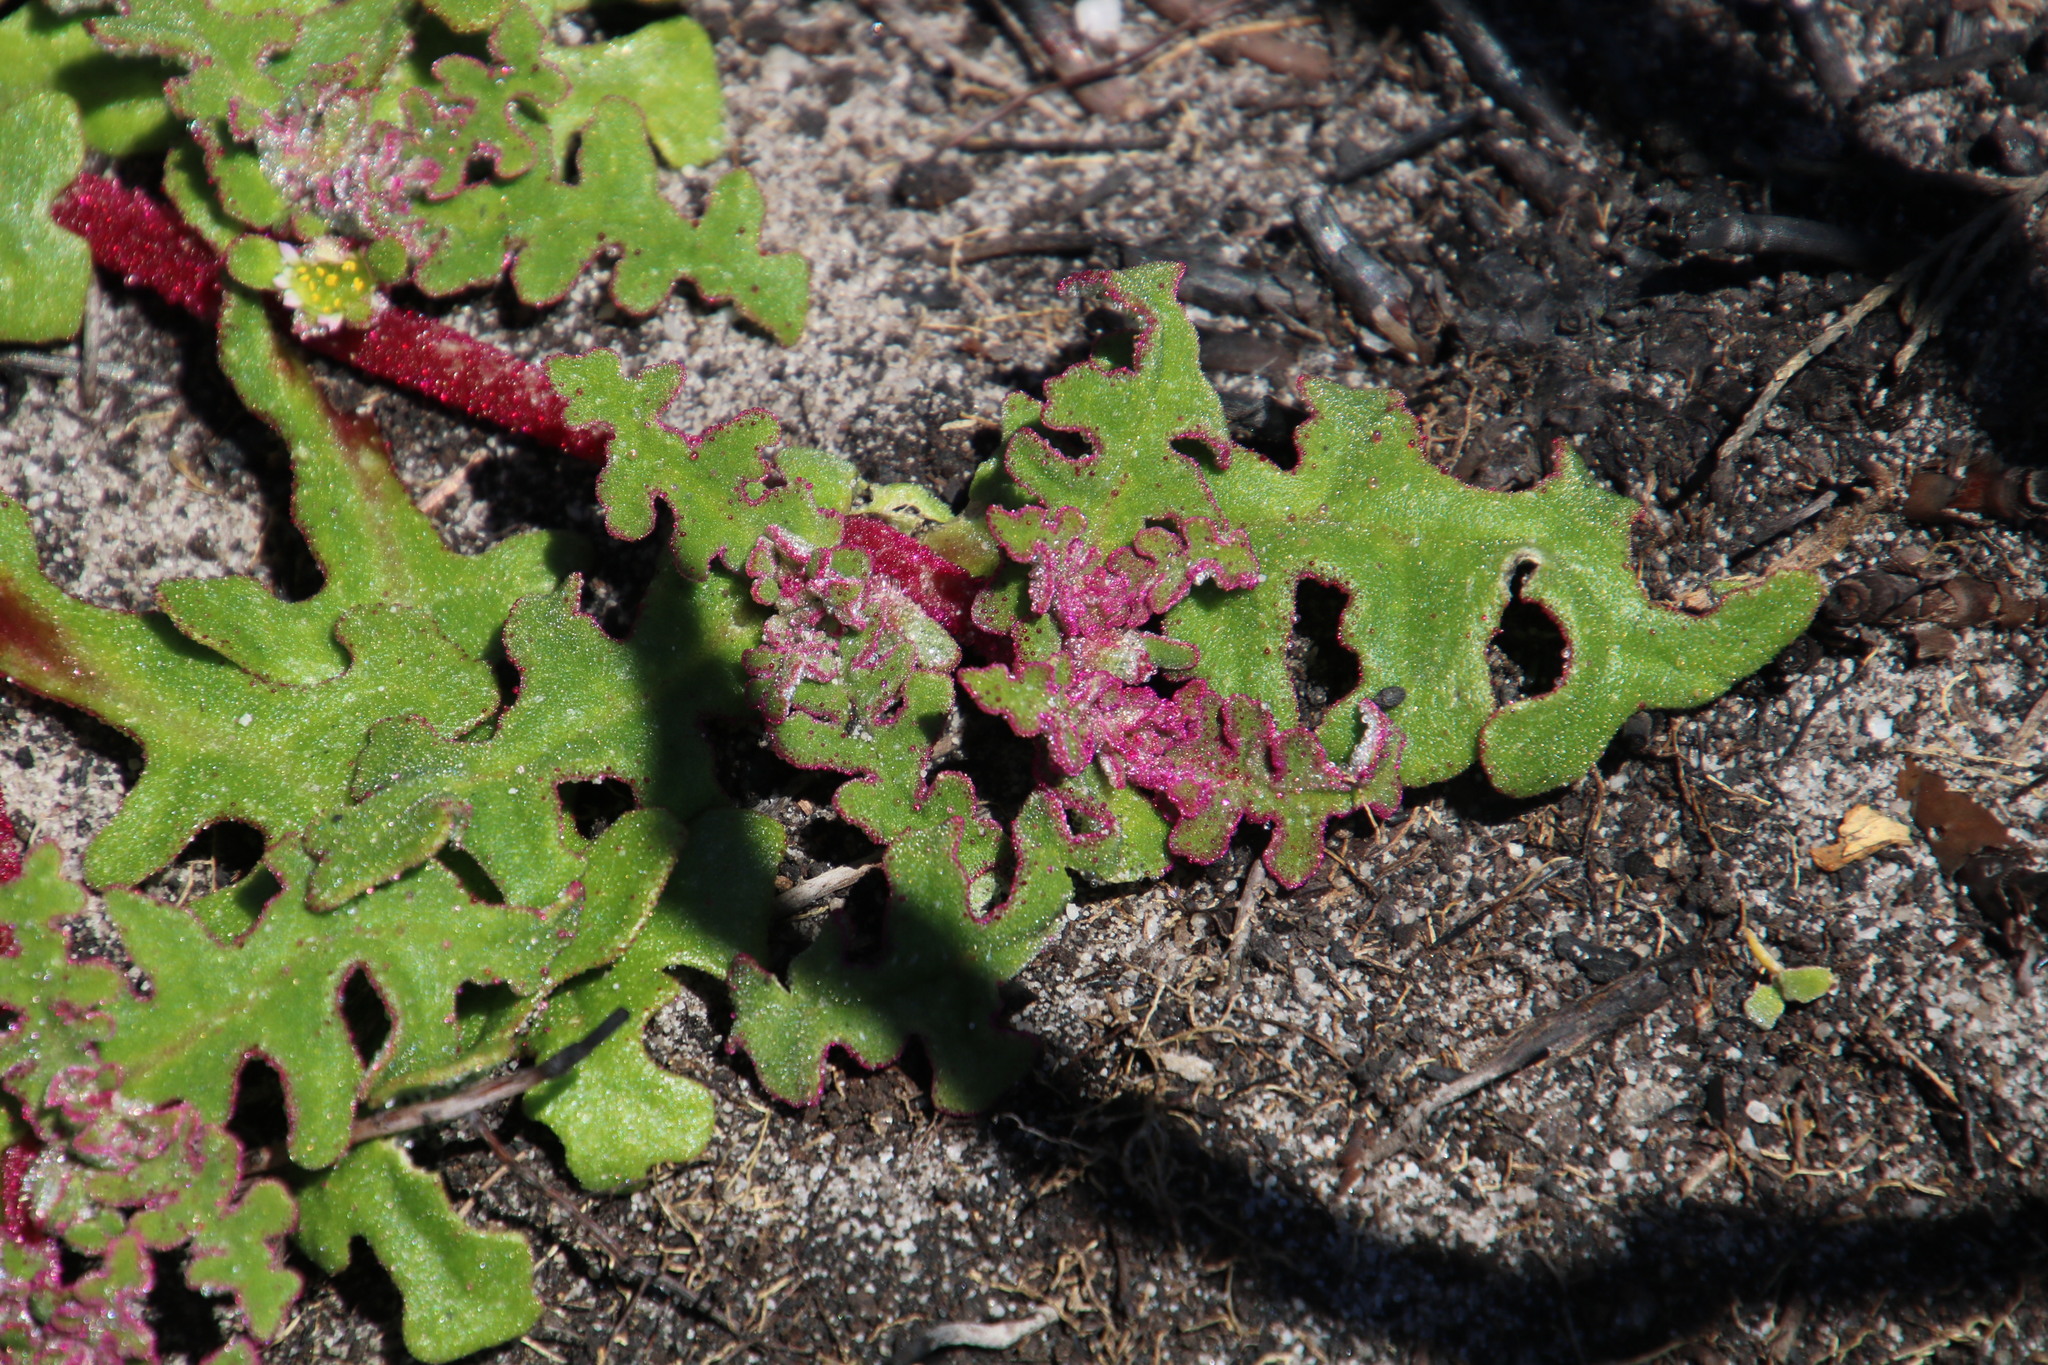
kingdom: Plantae
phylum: Tracheophyta
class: Magnoliopsida
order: Caryophyllales
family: Aizoaceae
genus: Cleretum
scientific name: Cleretum herrei
